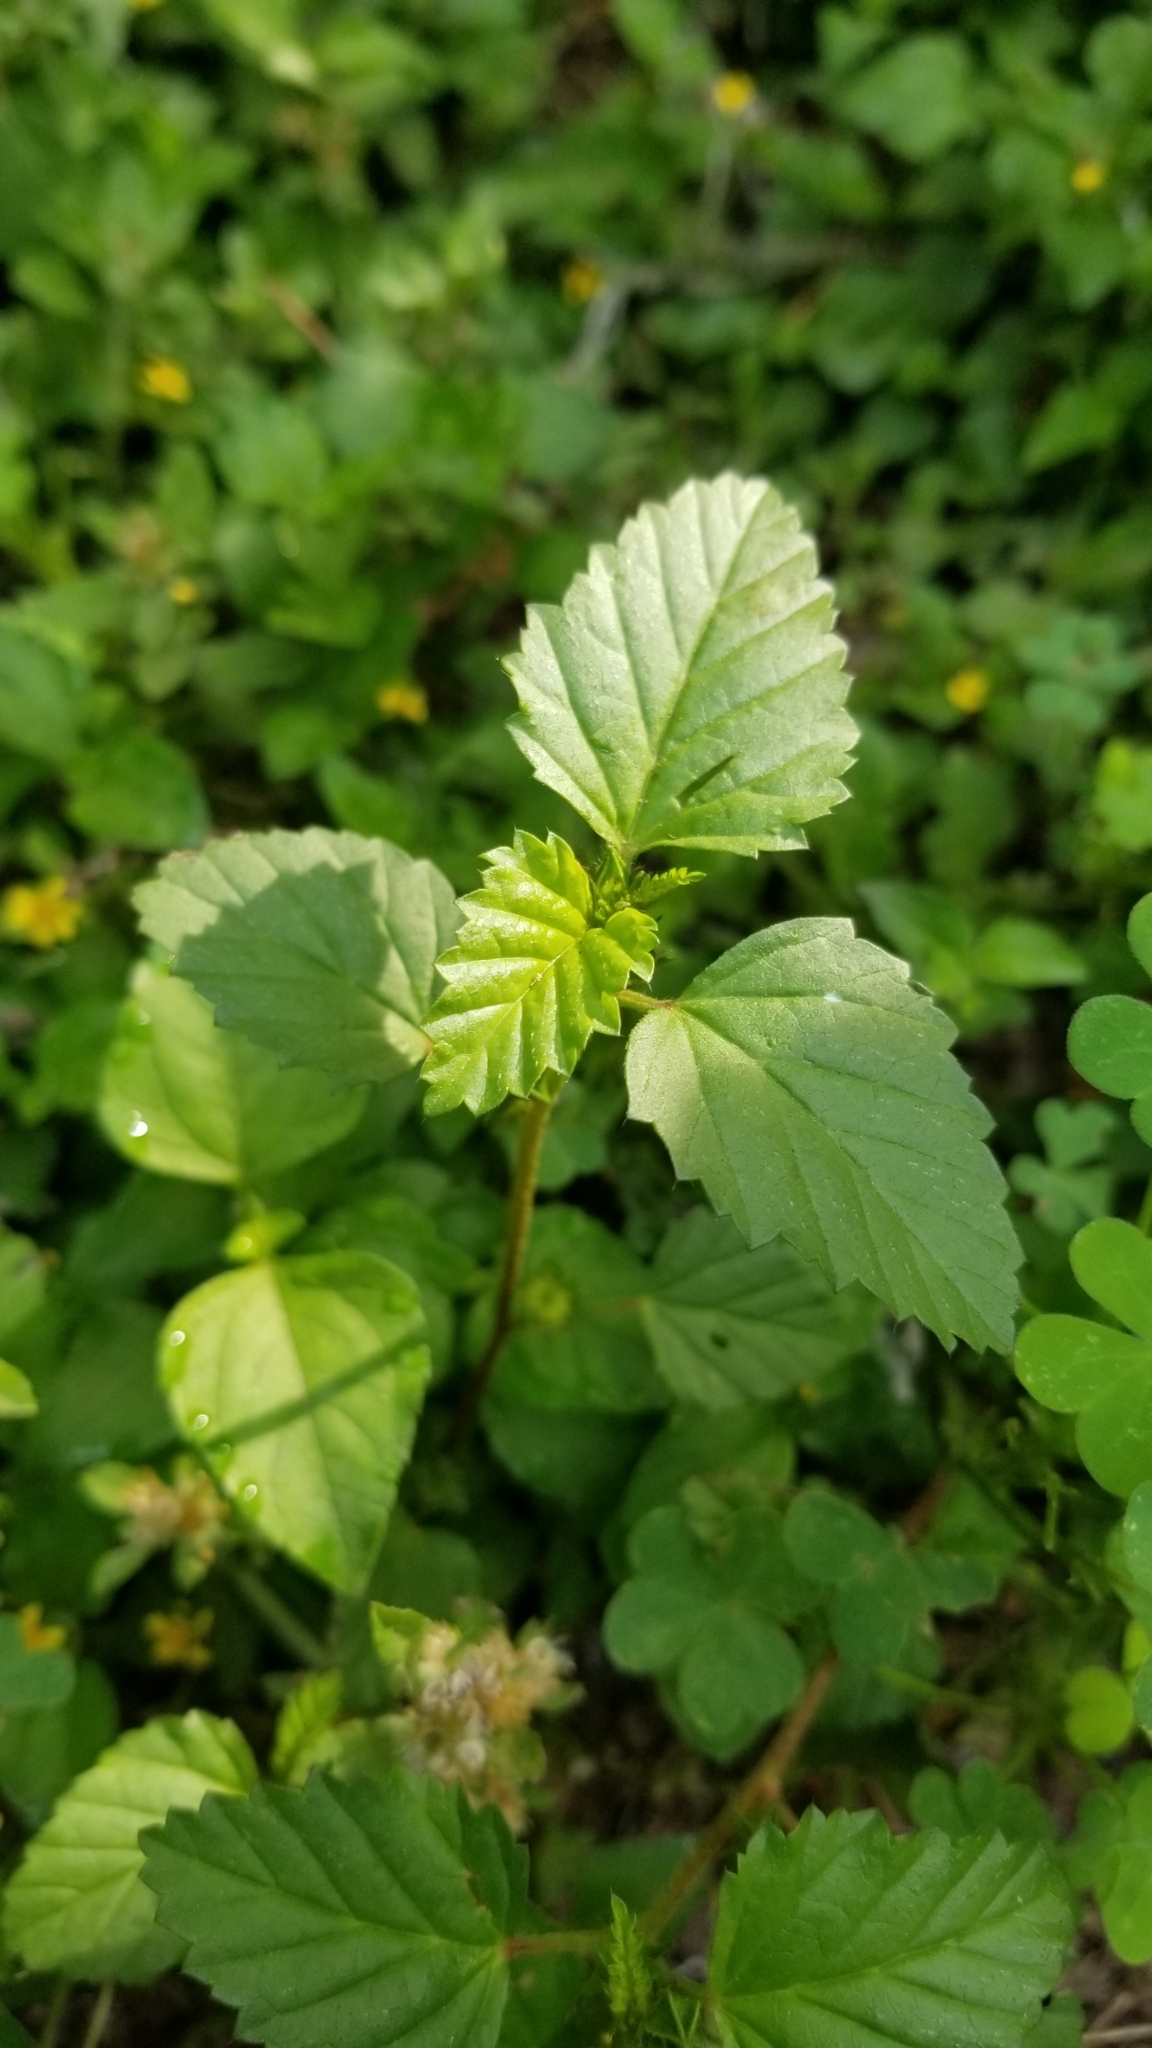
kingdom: Plantae
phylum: Tracheophyta
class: Magnoliopsida
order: Malvales
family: Malvaceae
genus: Malvastrum
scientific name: Malvastrum coromandelianum
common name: Threelobe false mallow
